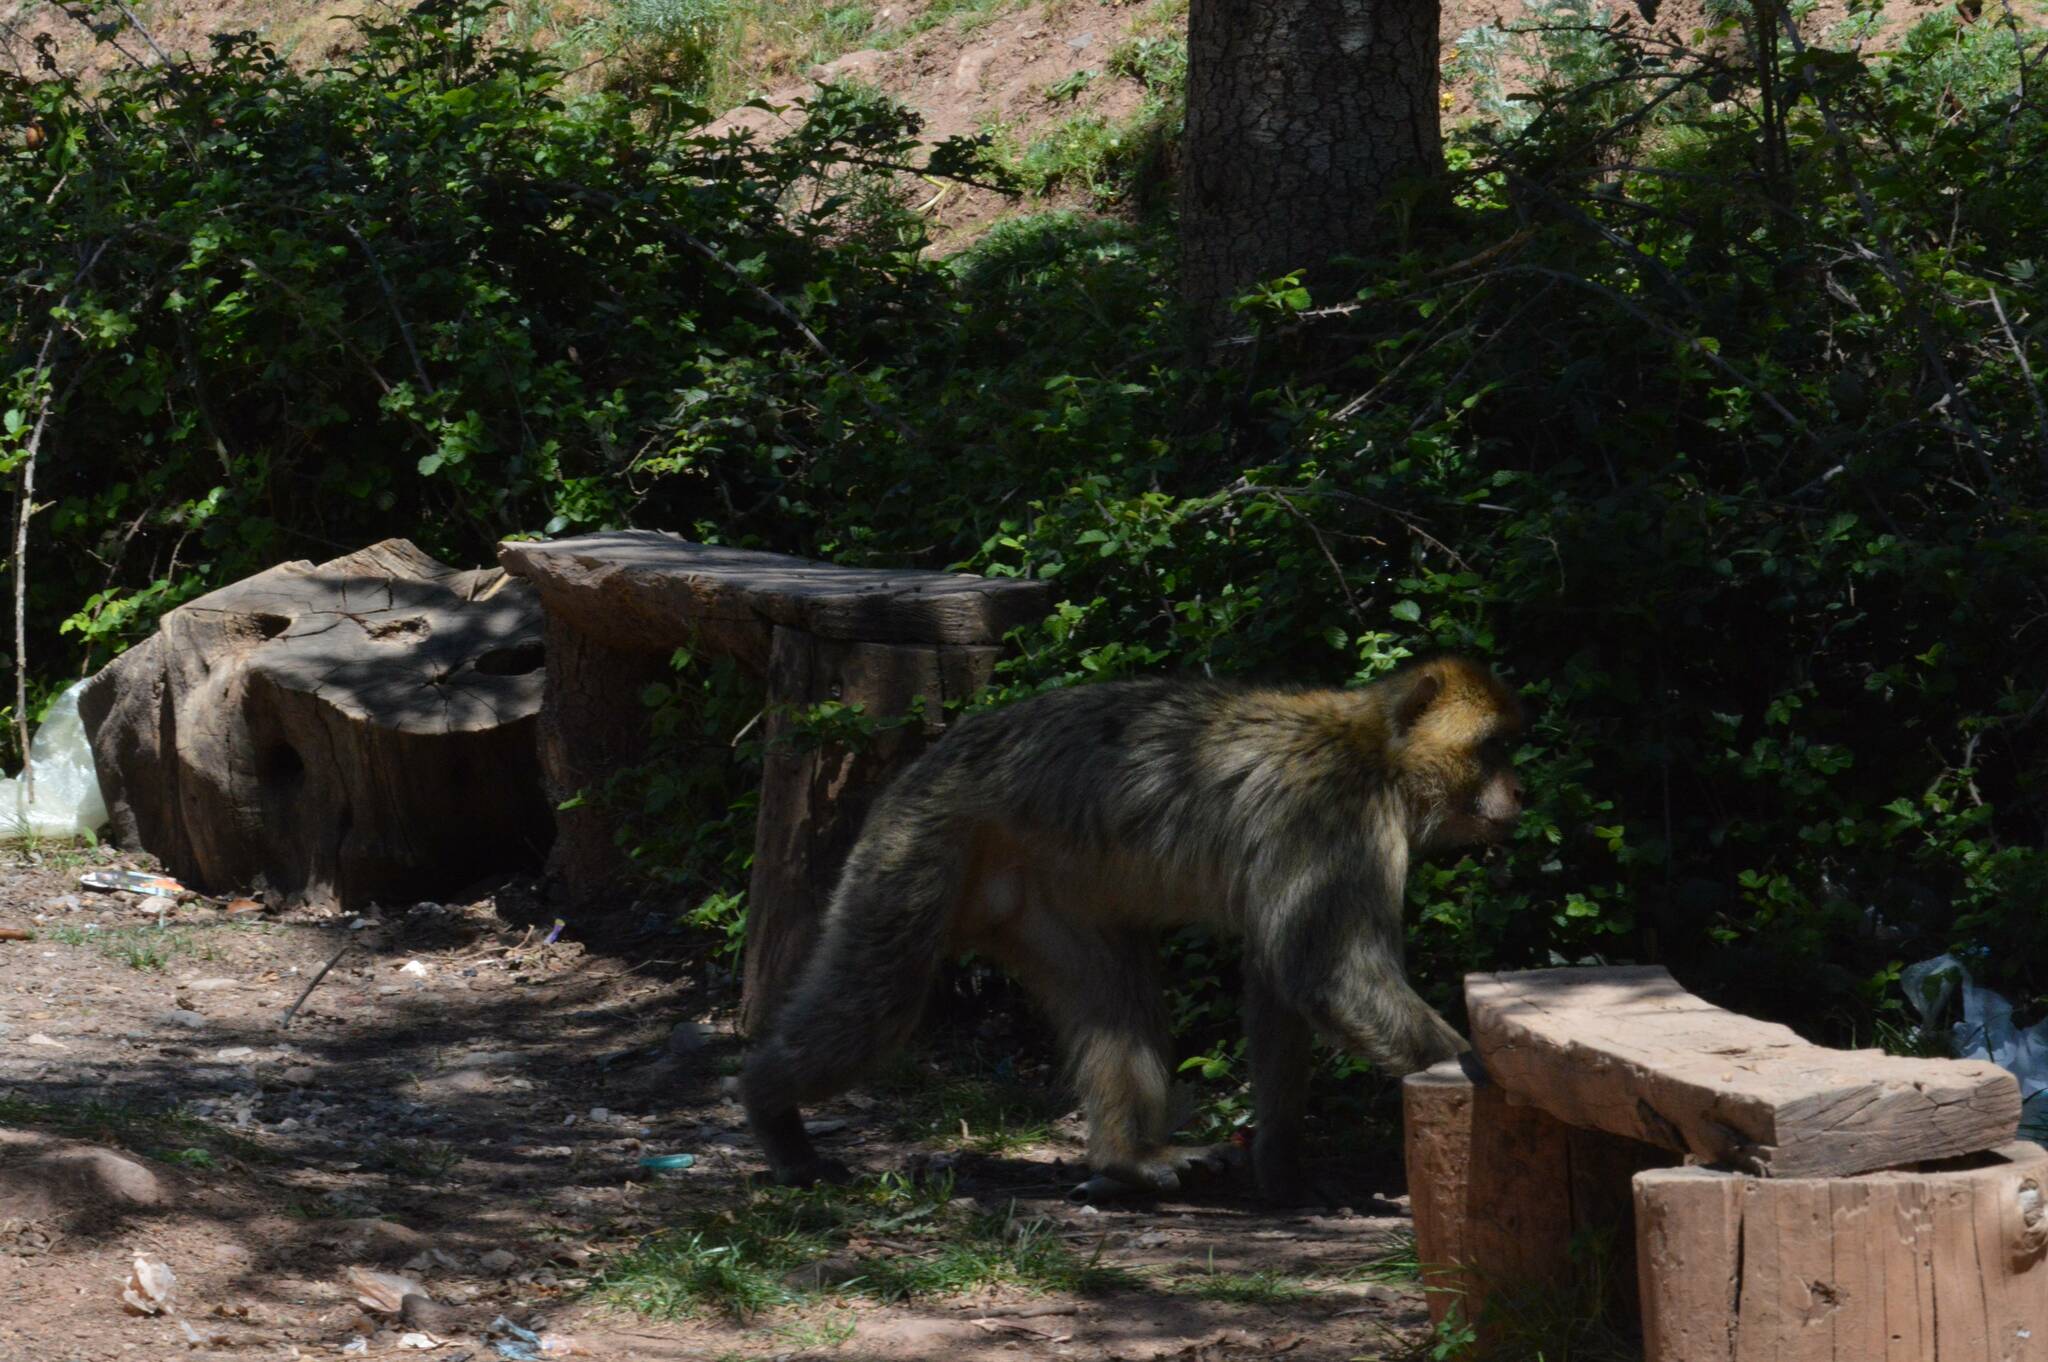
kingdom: Animalia
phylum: Chordata
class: Mammalia
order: Primates
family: Cercopithecidae
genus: Macaca
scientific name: Macaca sylvanus
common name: Barbary macaque
